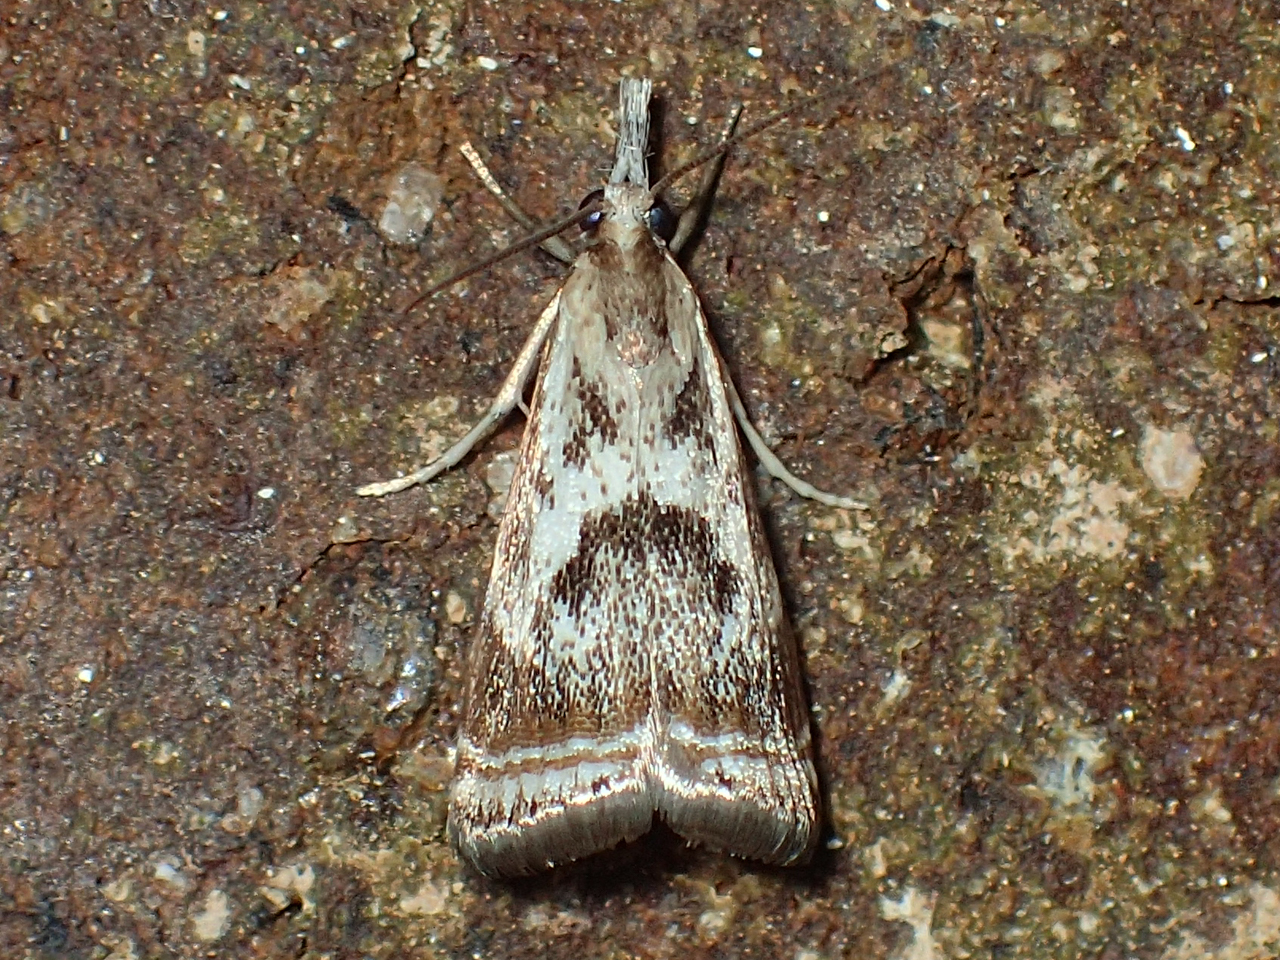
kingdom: Animalia
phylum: Arthropoda
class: Insecta
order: Lepidoptera
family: Crambidae
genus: Microcrambus
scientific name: Microcrambus elegans
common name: Elegant grass-veneer
